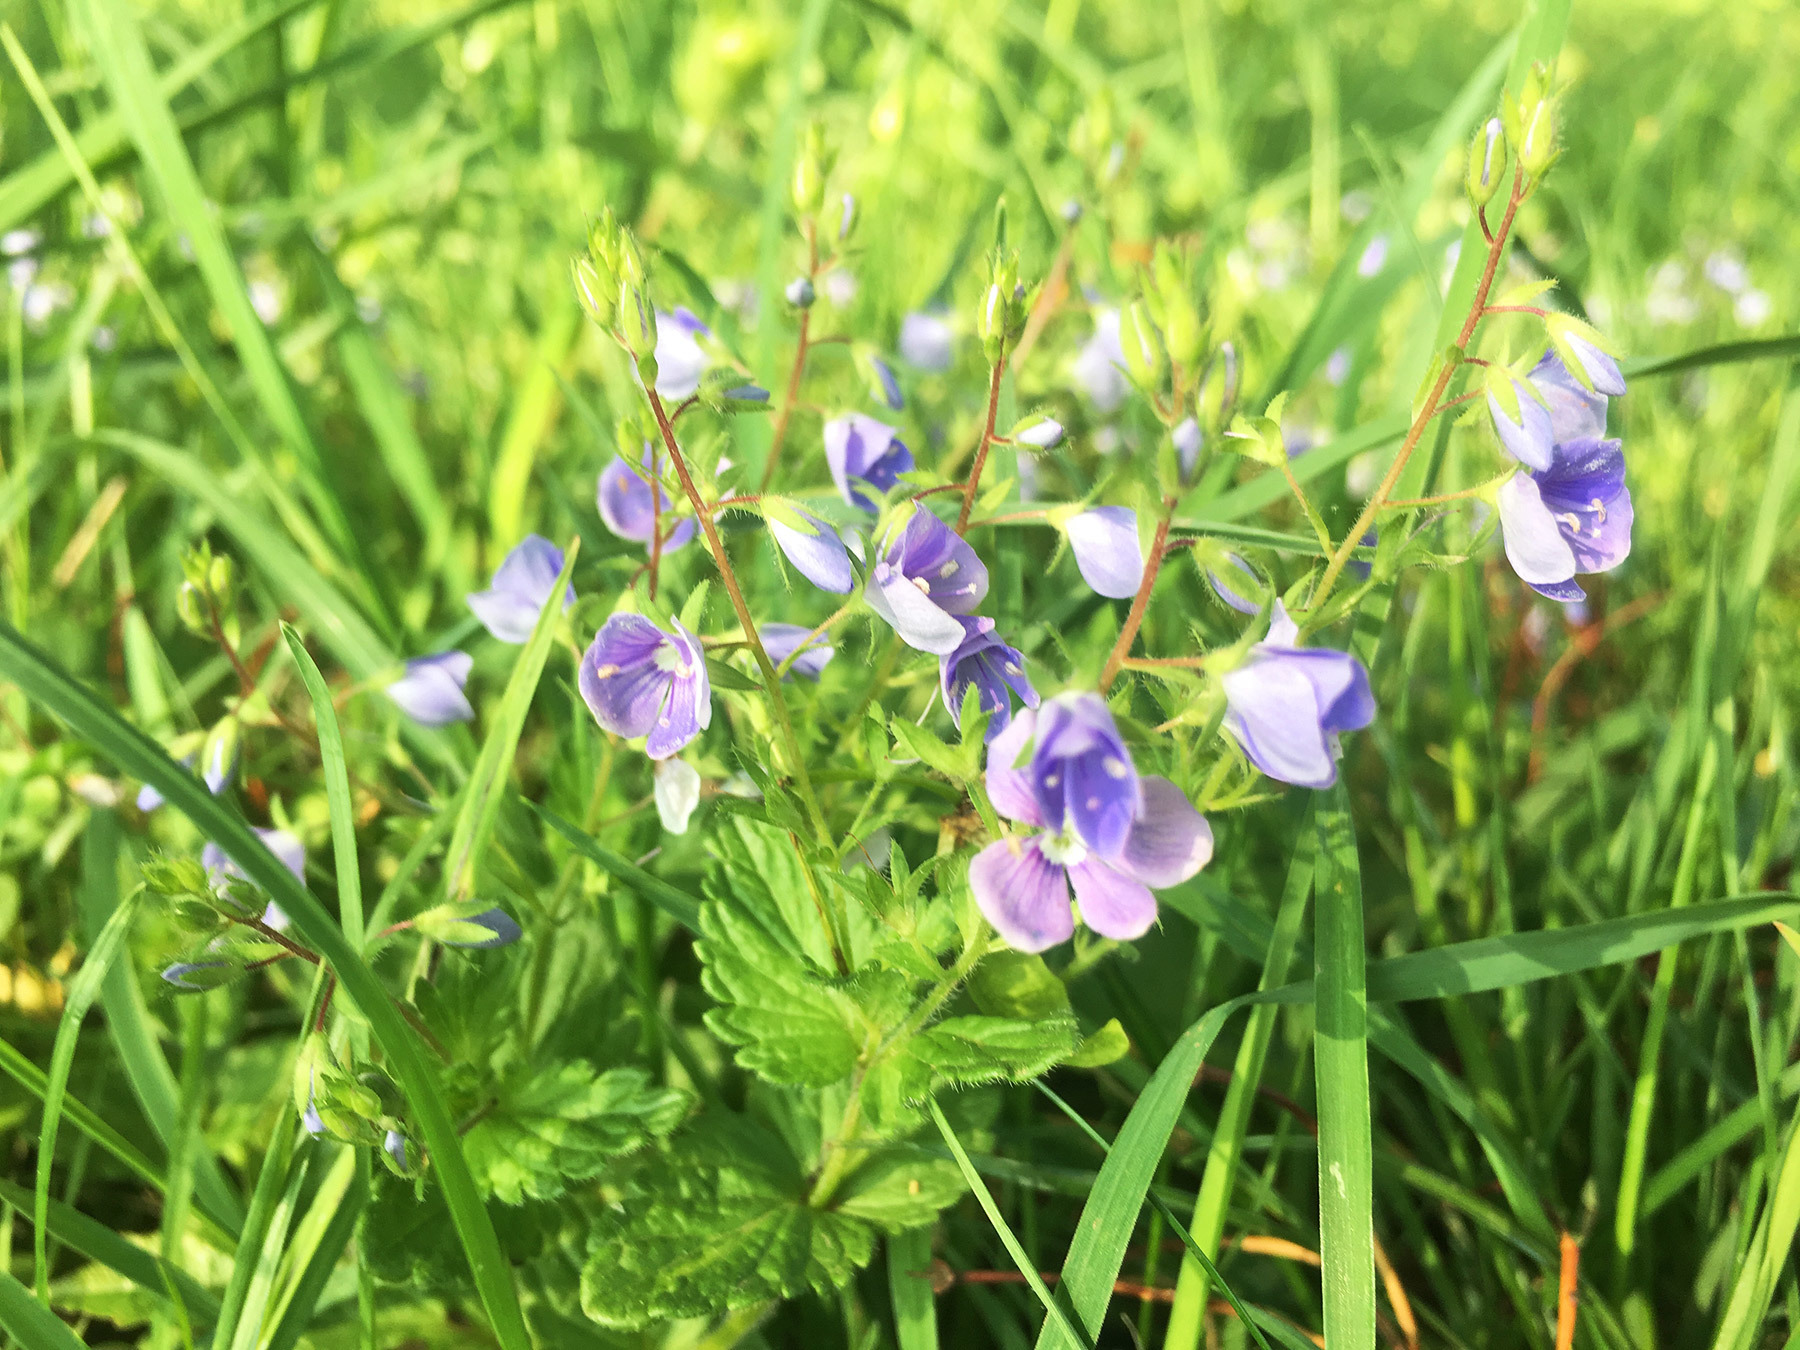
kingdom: Plantae
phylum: Tracheophyta
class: Magnoliopsida
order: Lamiales
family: Plantaginaceae
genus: Veronica
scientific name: Veronica chamaedrys
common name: Germander speedwell
